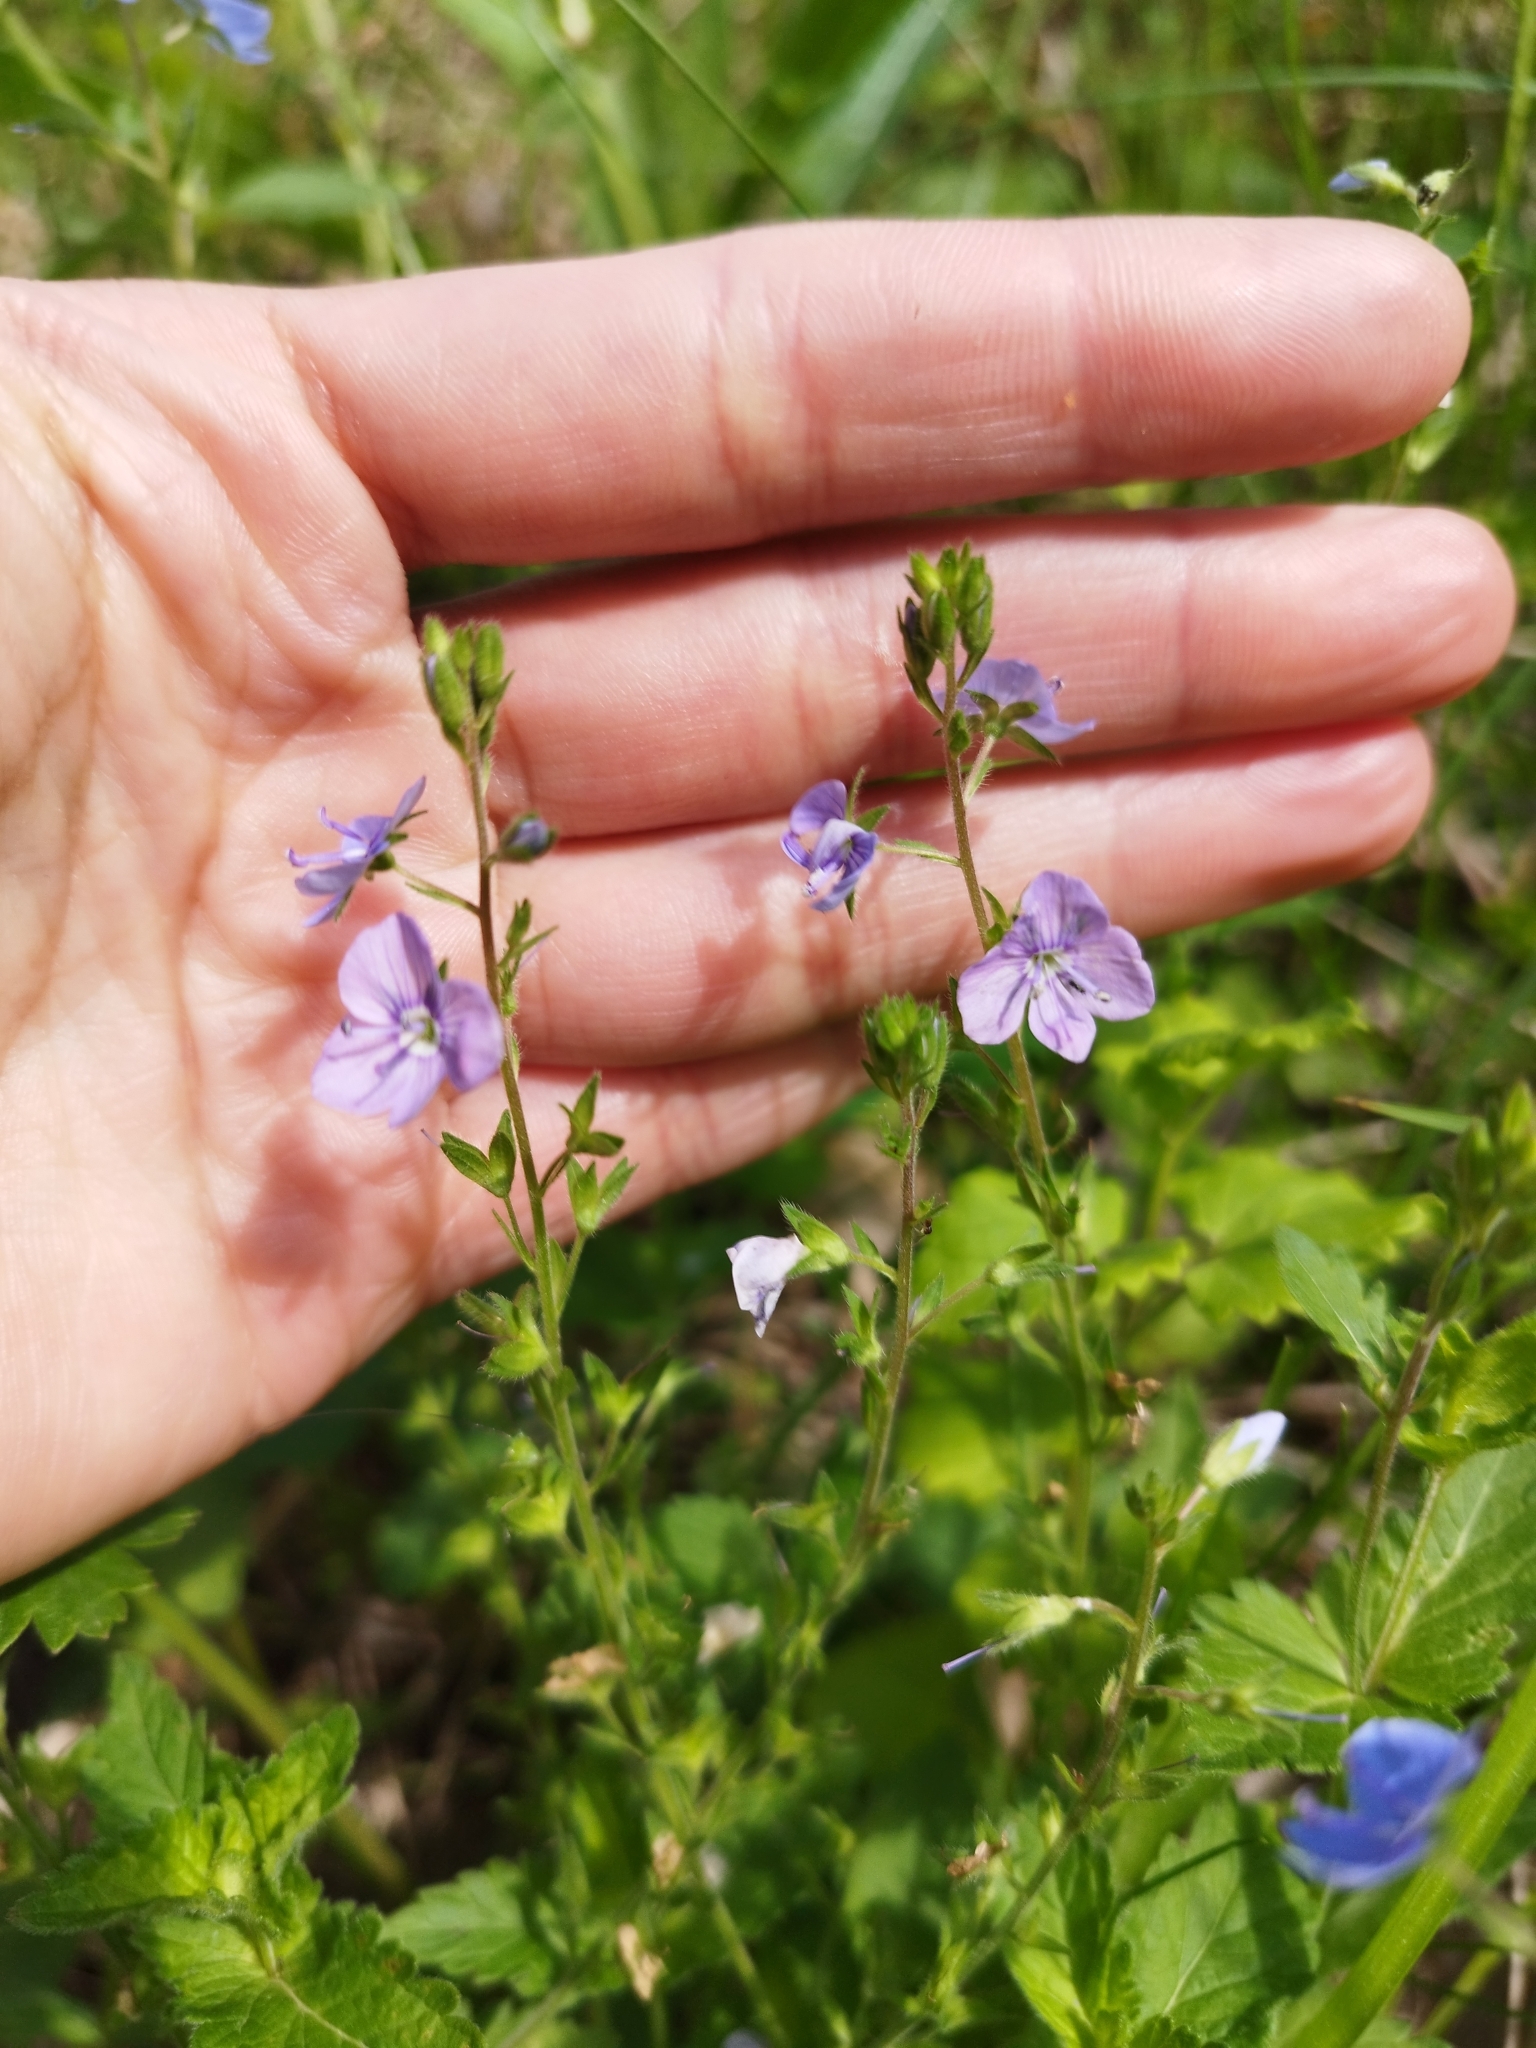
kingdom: Plantae
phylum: Tracheophyta
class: Magnoliopsida
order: Lamiales
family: Plantaginaceae
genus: Veronica
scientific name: Veronica chamaedrys
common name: Germander speedwell
